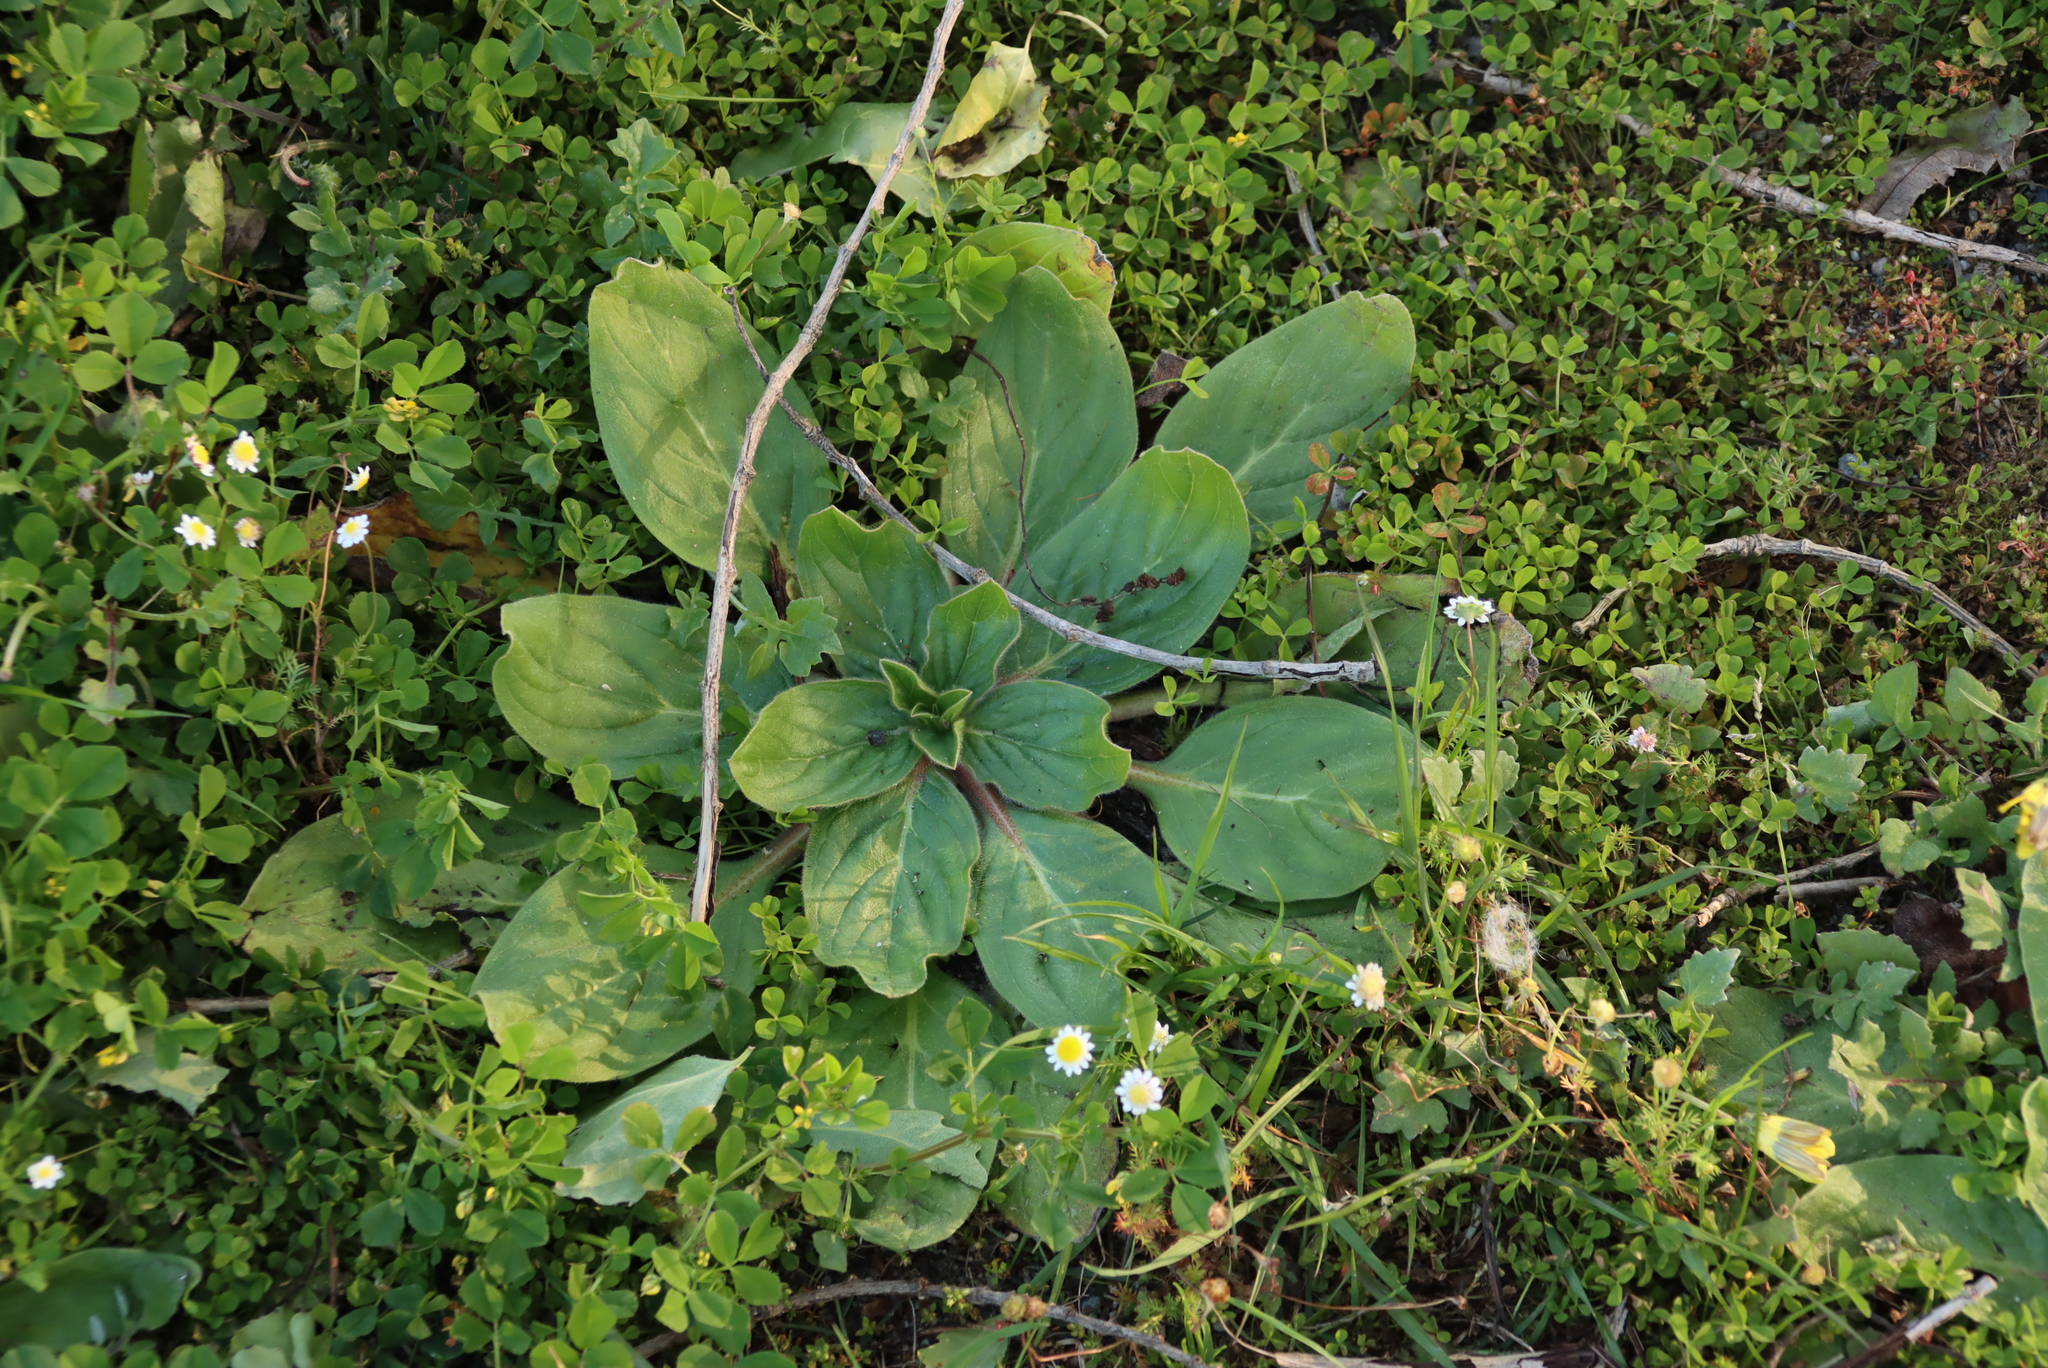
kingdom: Plantae
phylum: Tracheophyta
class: Magnoliopsida
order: Boraginales
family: Boraginaceae
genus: Echium
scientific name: Echium plantagineum
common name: Purple viper's-bugloss
